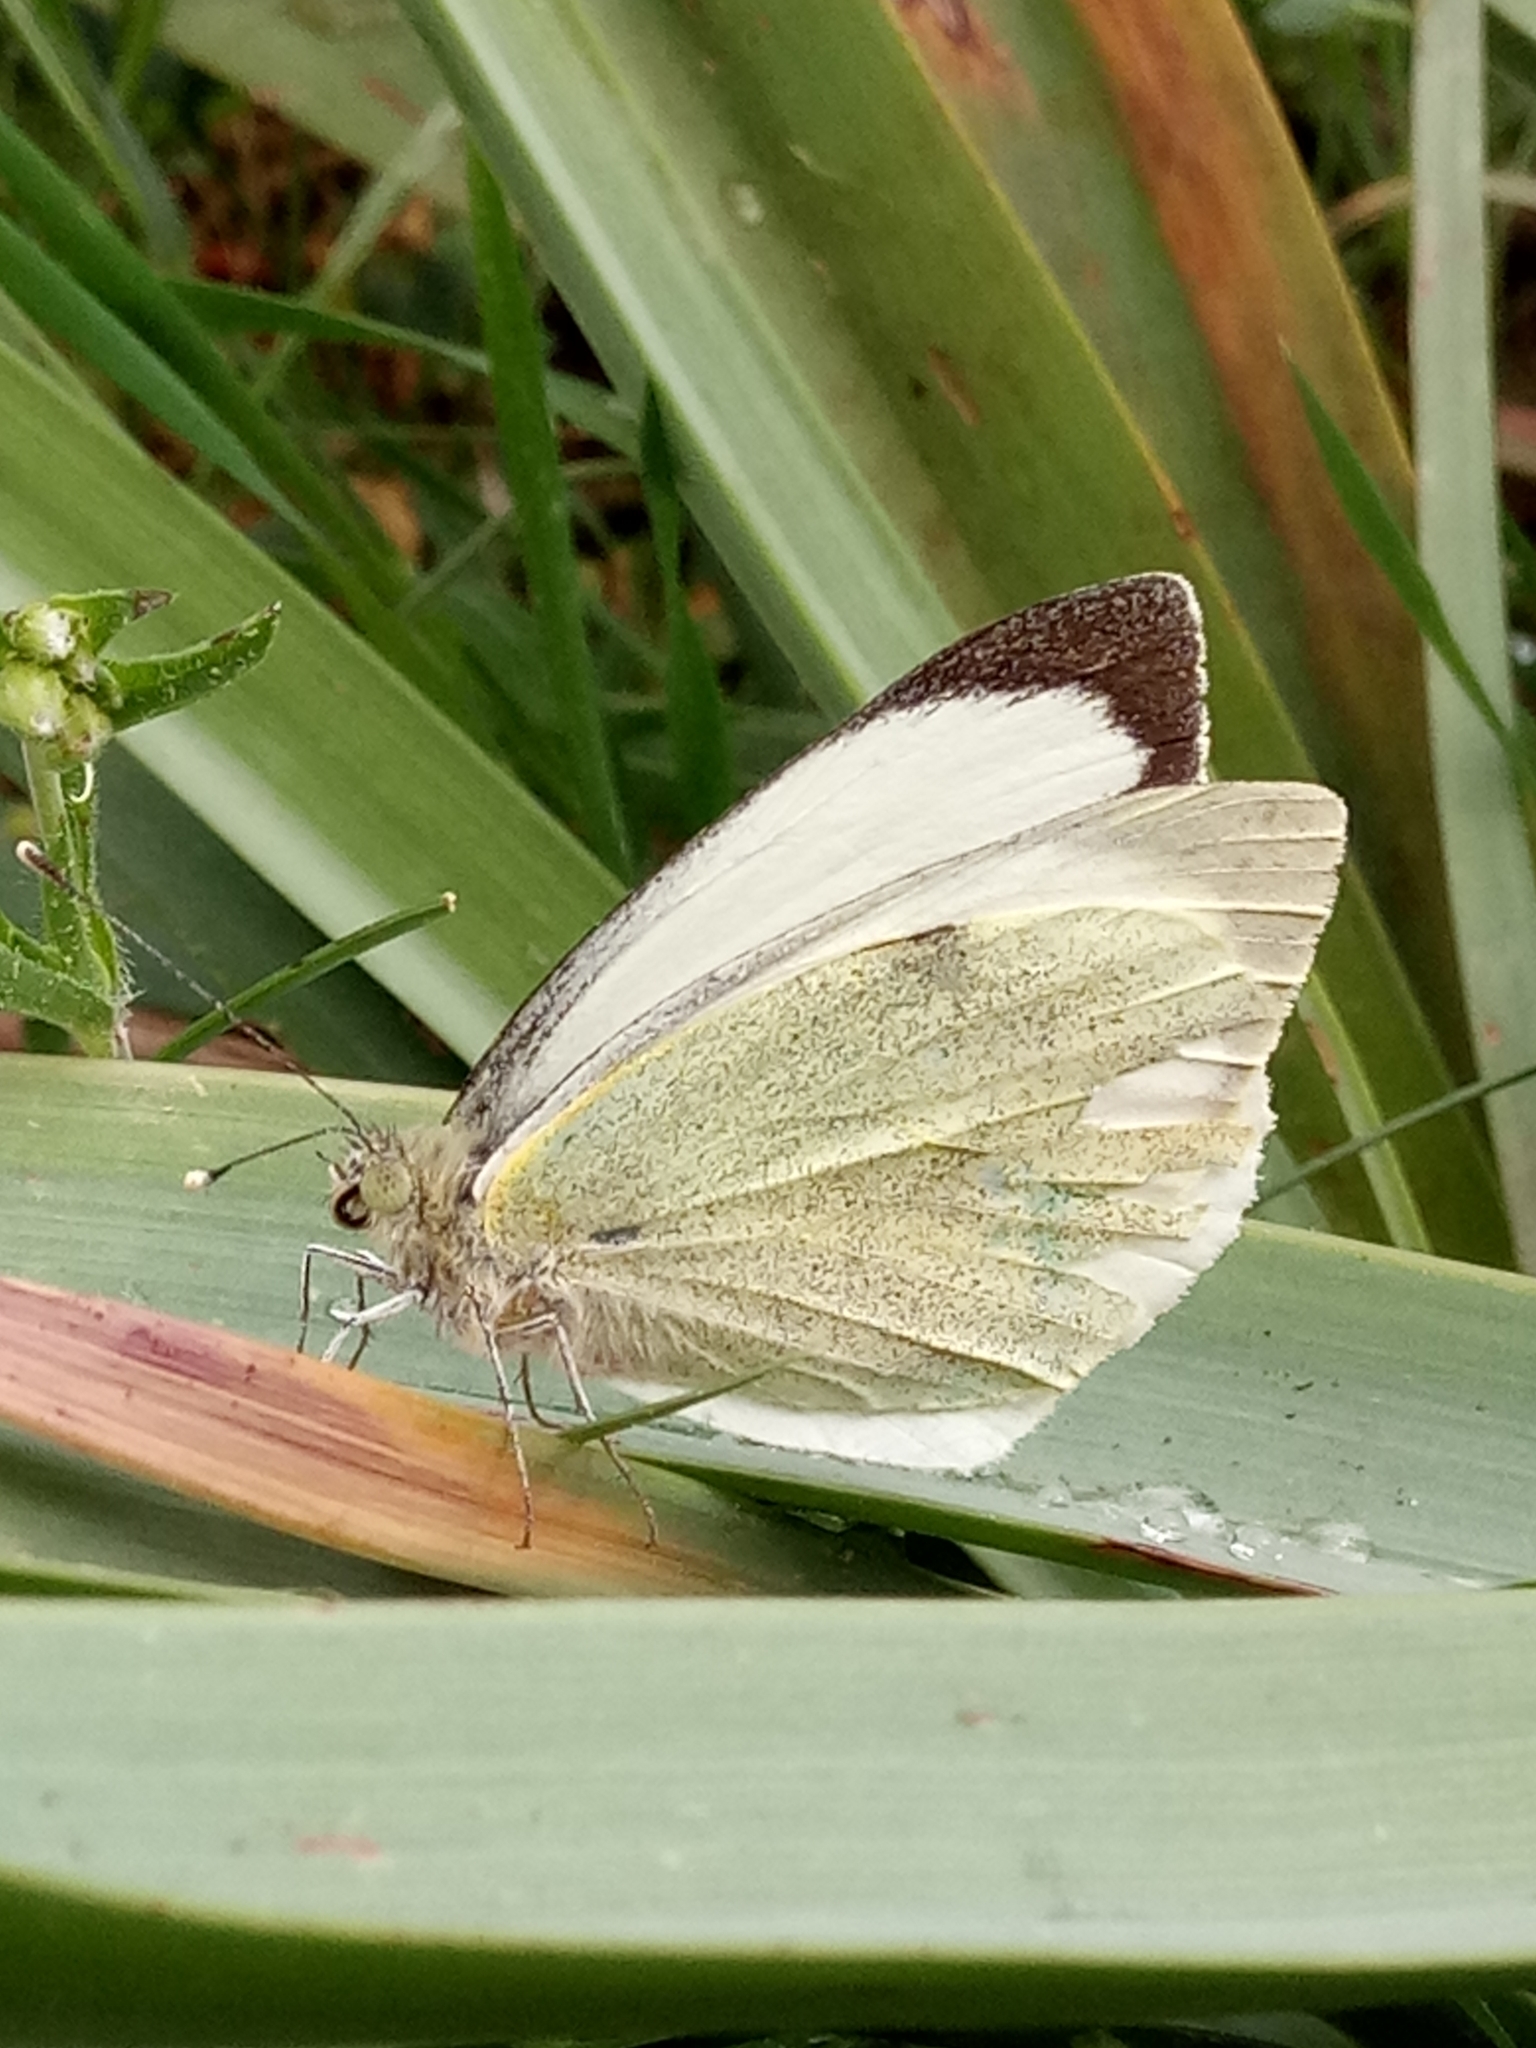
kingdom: Animalia
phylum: Arthropoda
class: Insecta
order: Lepidoptera
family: Pieridae
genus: Pieris
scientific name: Pieris brassicae
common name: Large white
